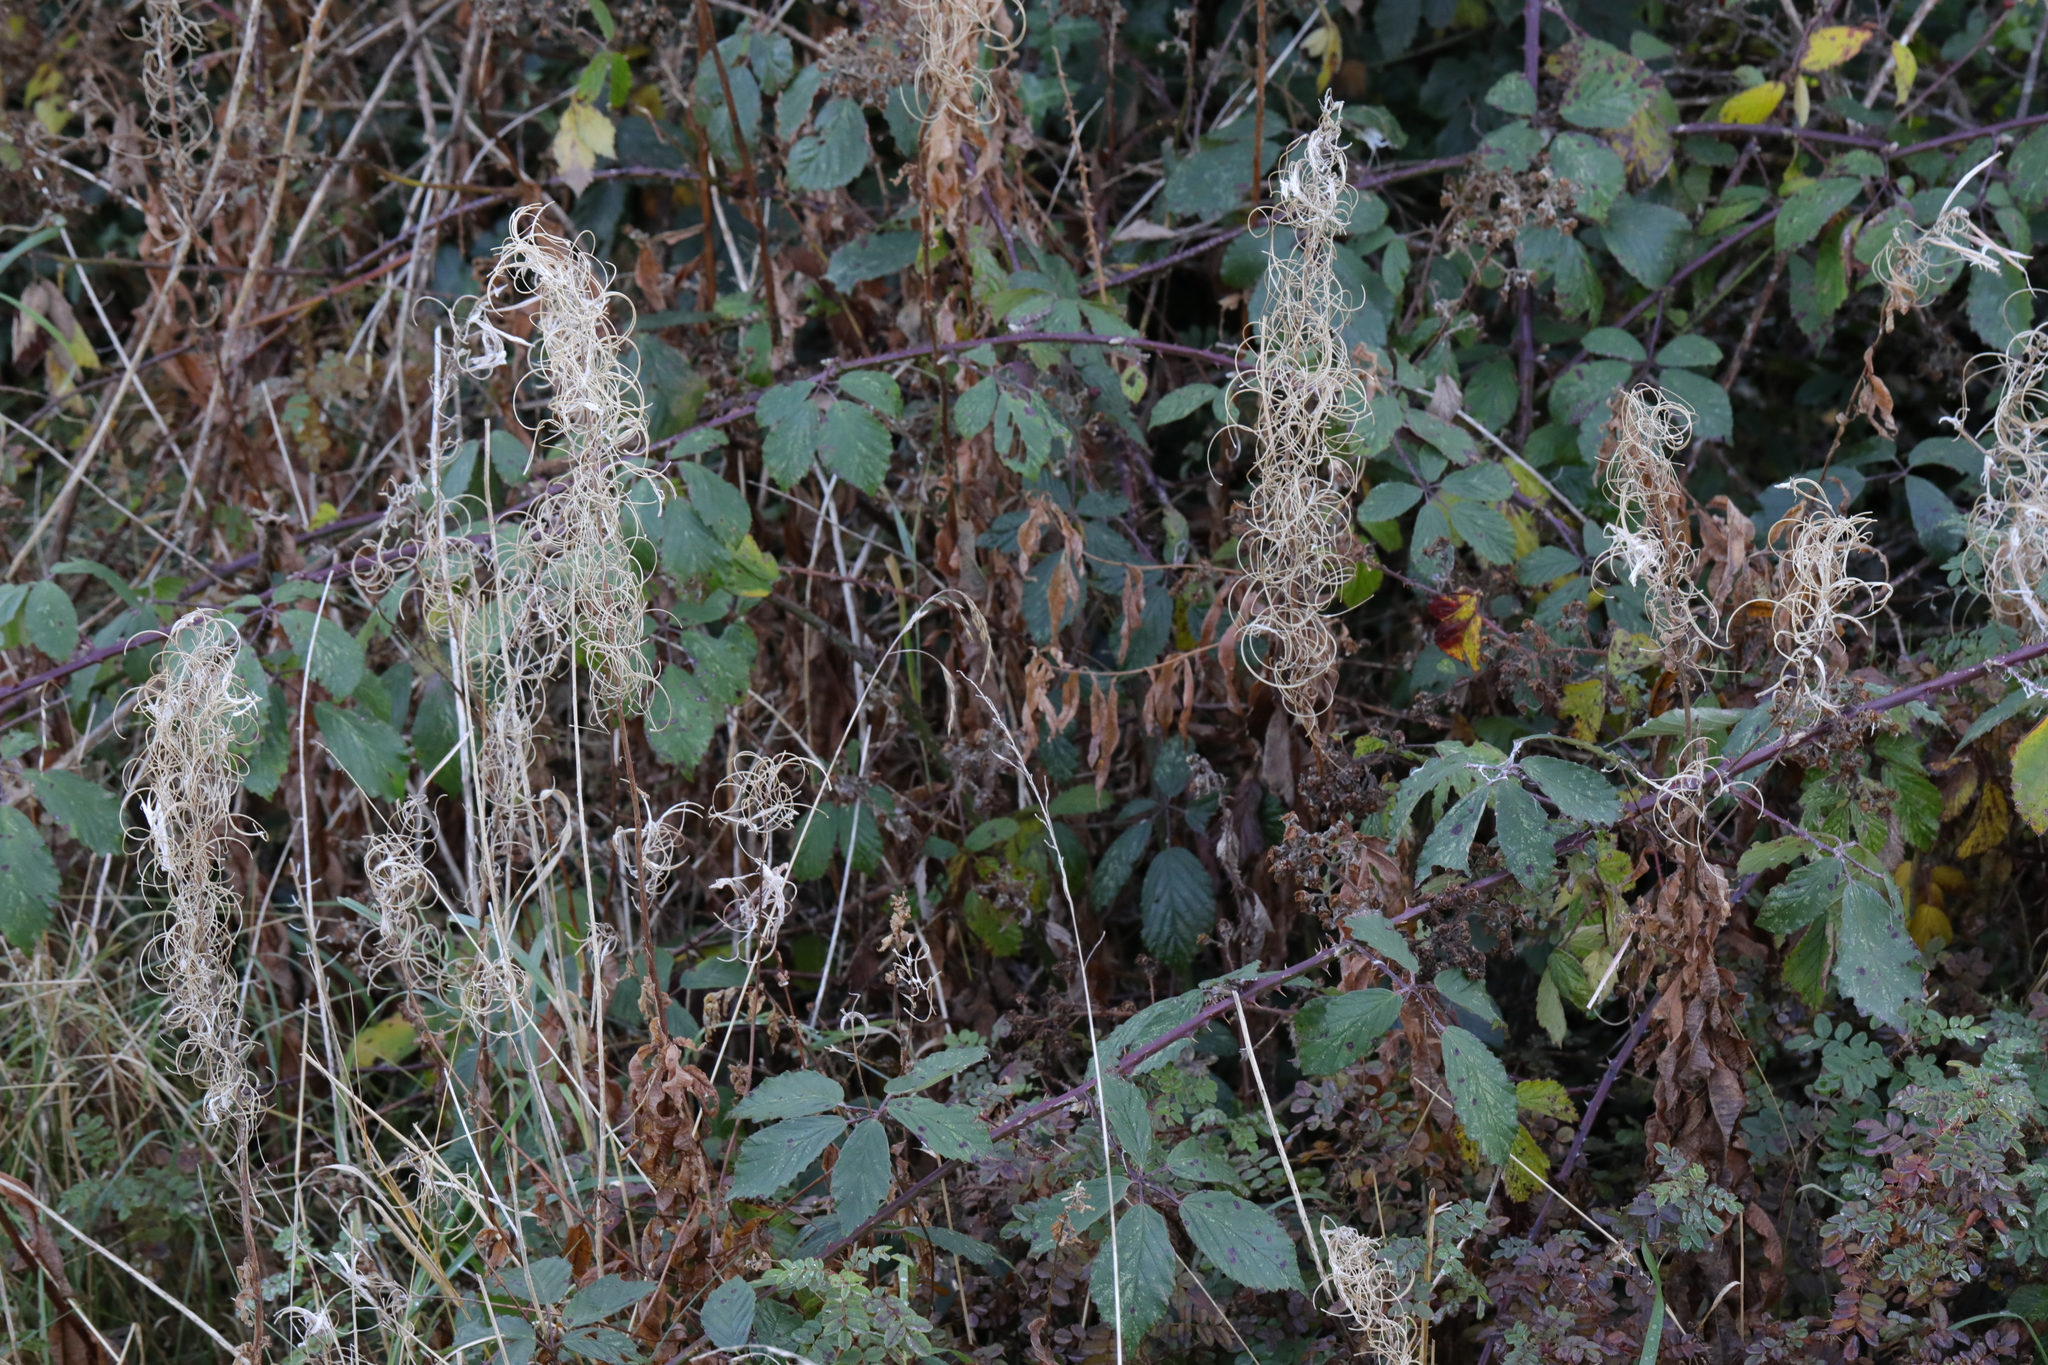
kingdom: Plantae
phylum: Tracheophyta
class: Magnoliopsida
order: Myrtales
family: Onagraceae
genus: Chamaenerion
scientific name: Chamaenerion angustifolium
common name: Fireweed
